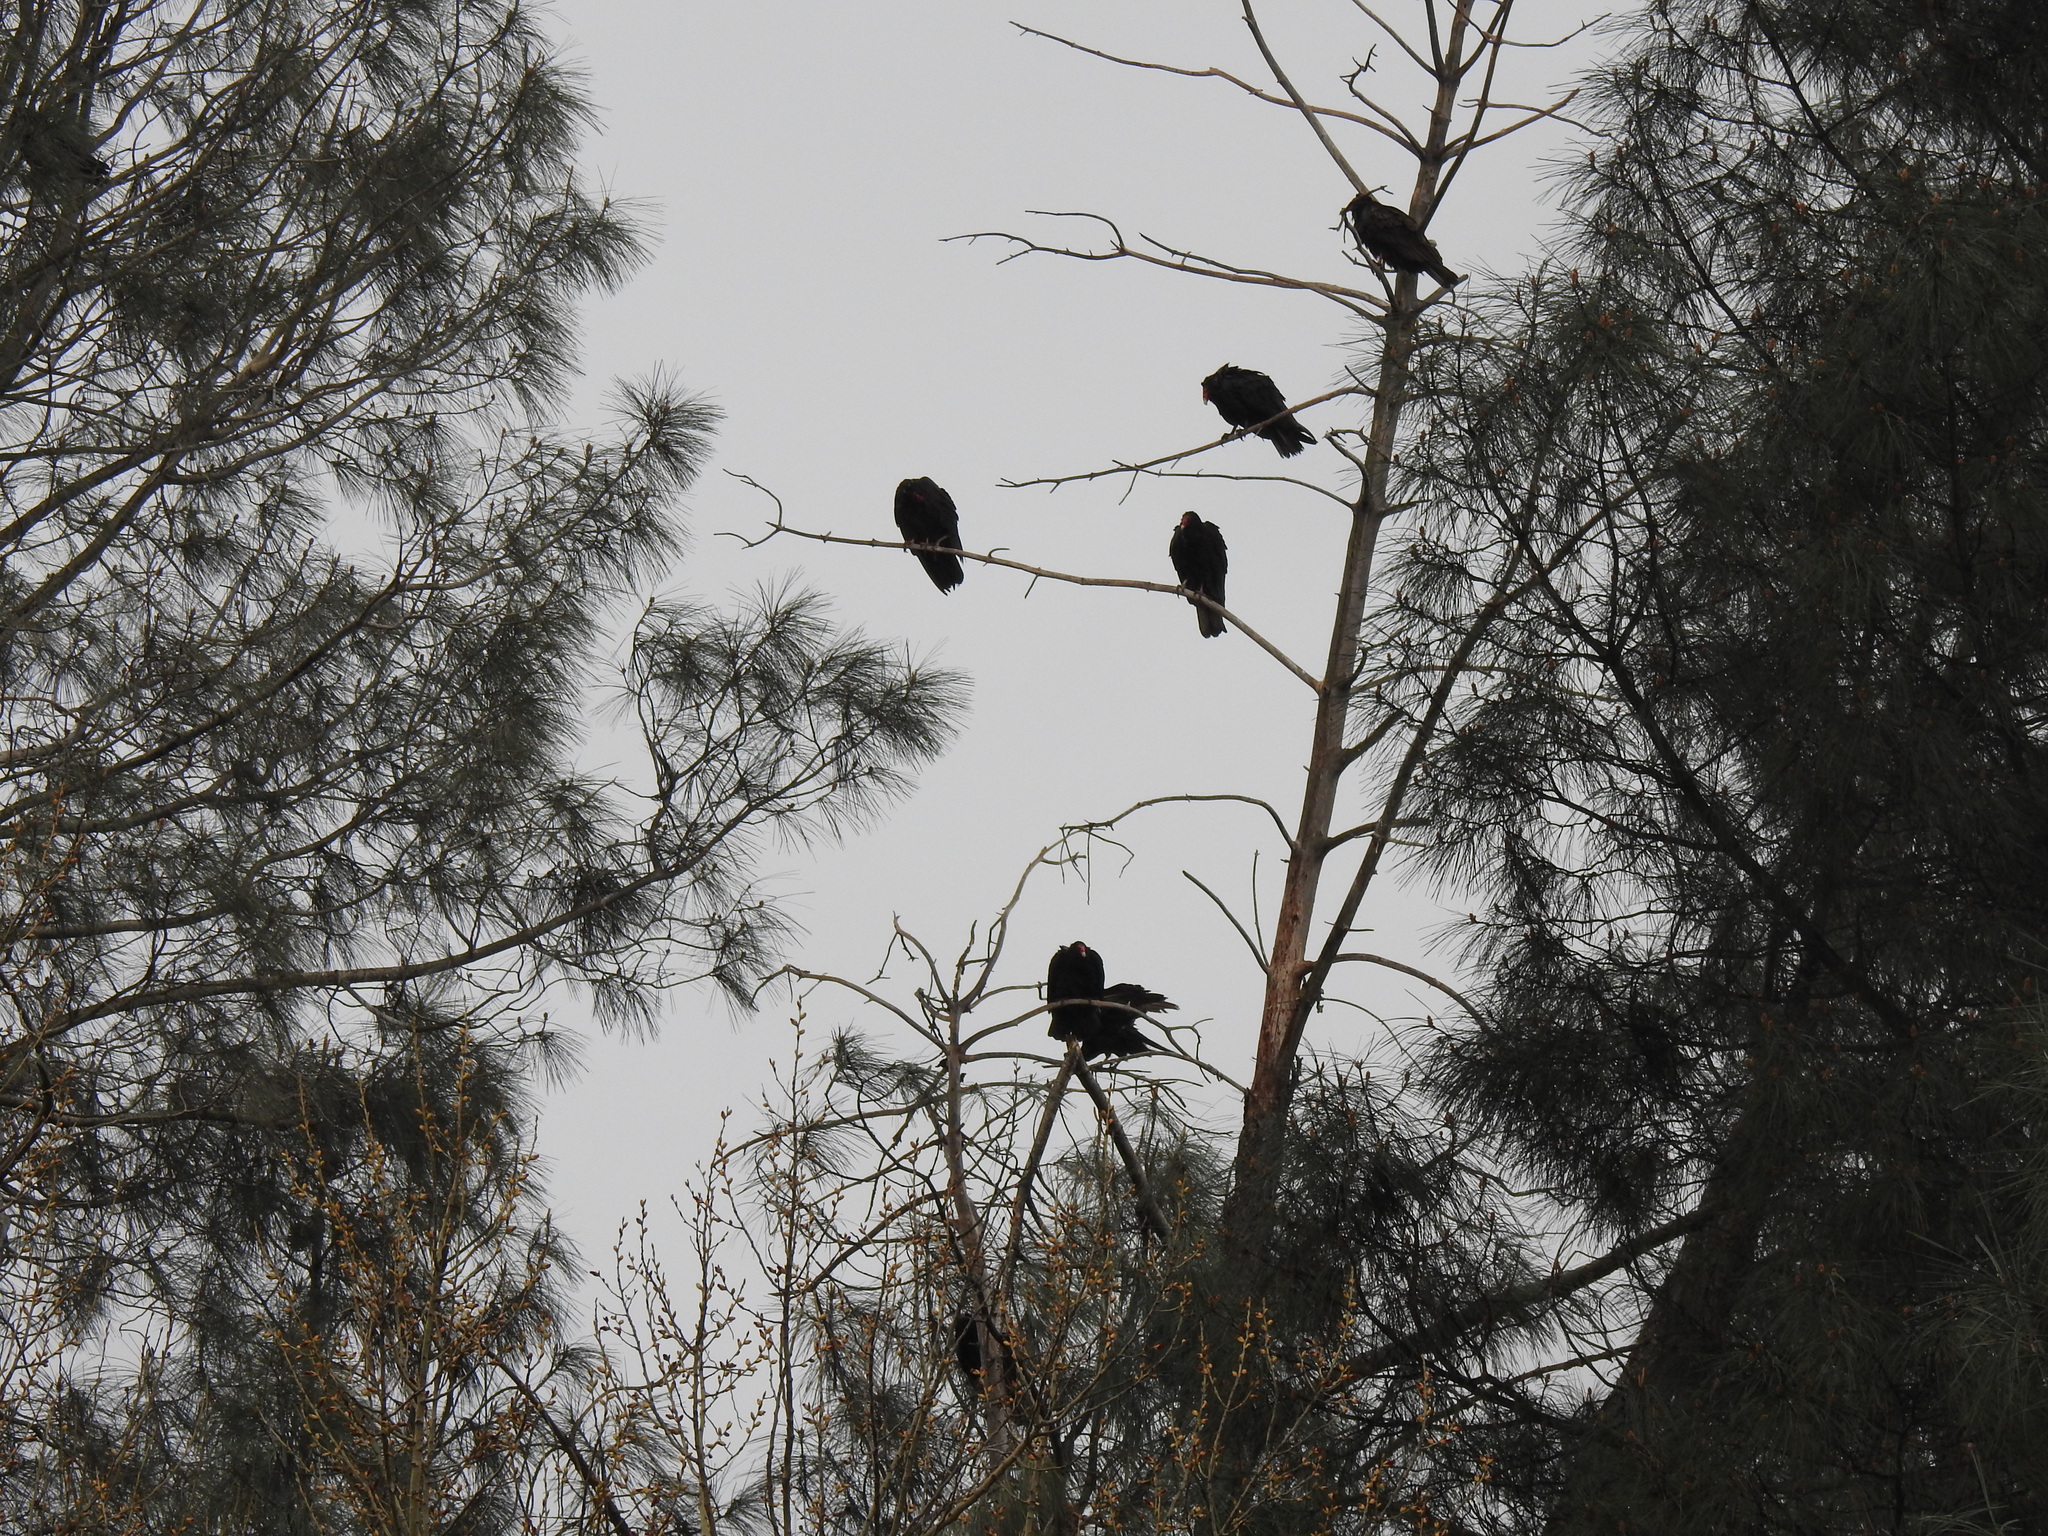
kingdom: Animalia
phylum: Chordata
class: Aves
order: Accipitriformes
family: Cathartidae
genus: Cathartes
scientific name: Cathartes aura
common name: Turkey vulture
